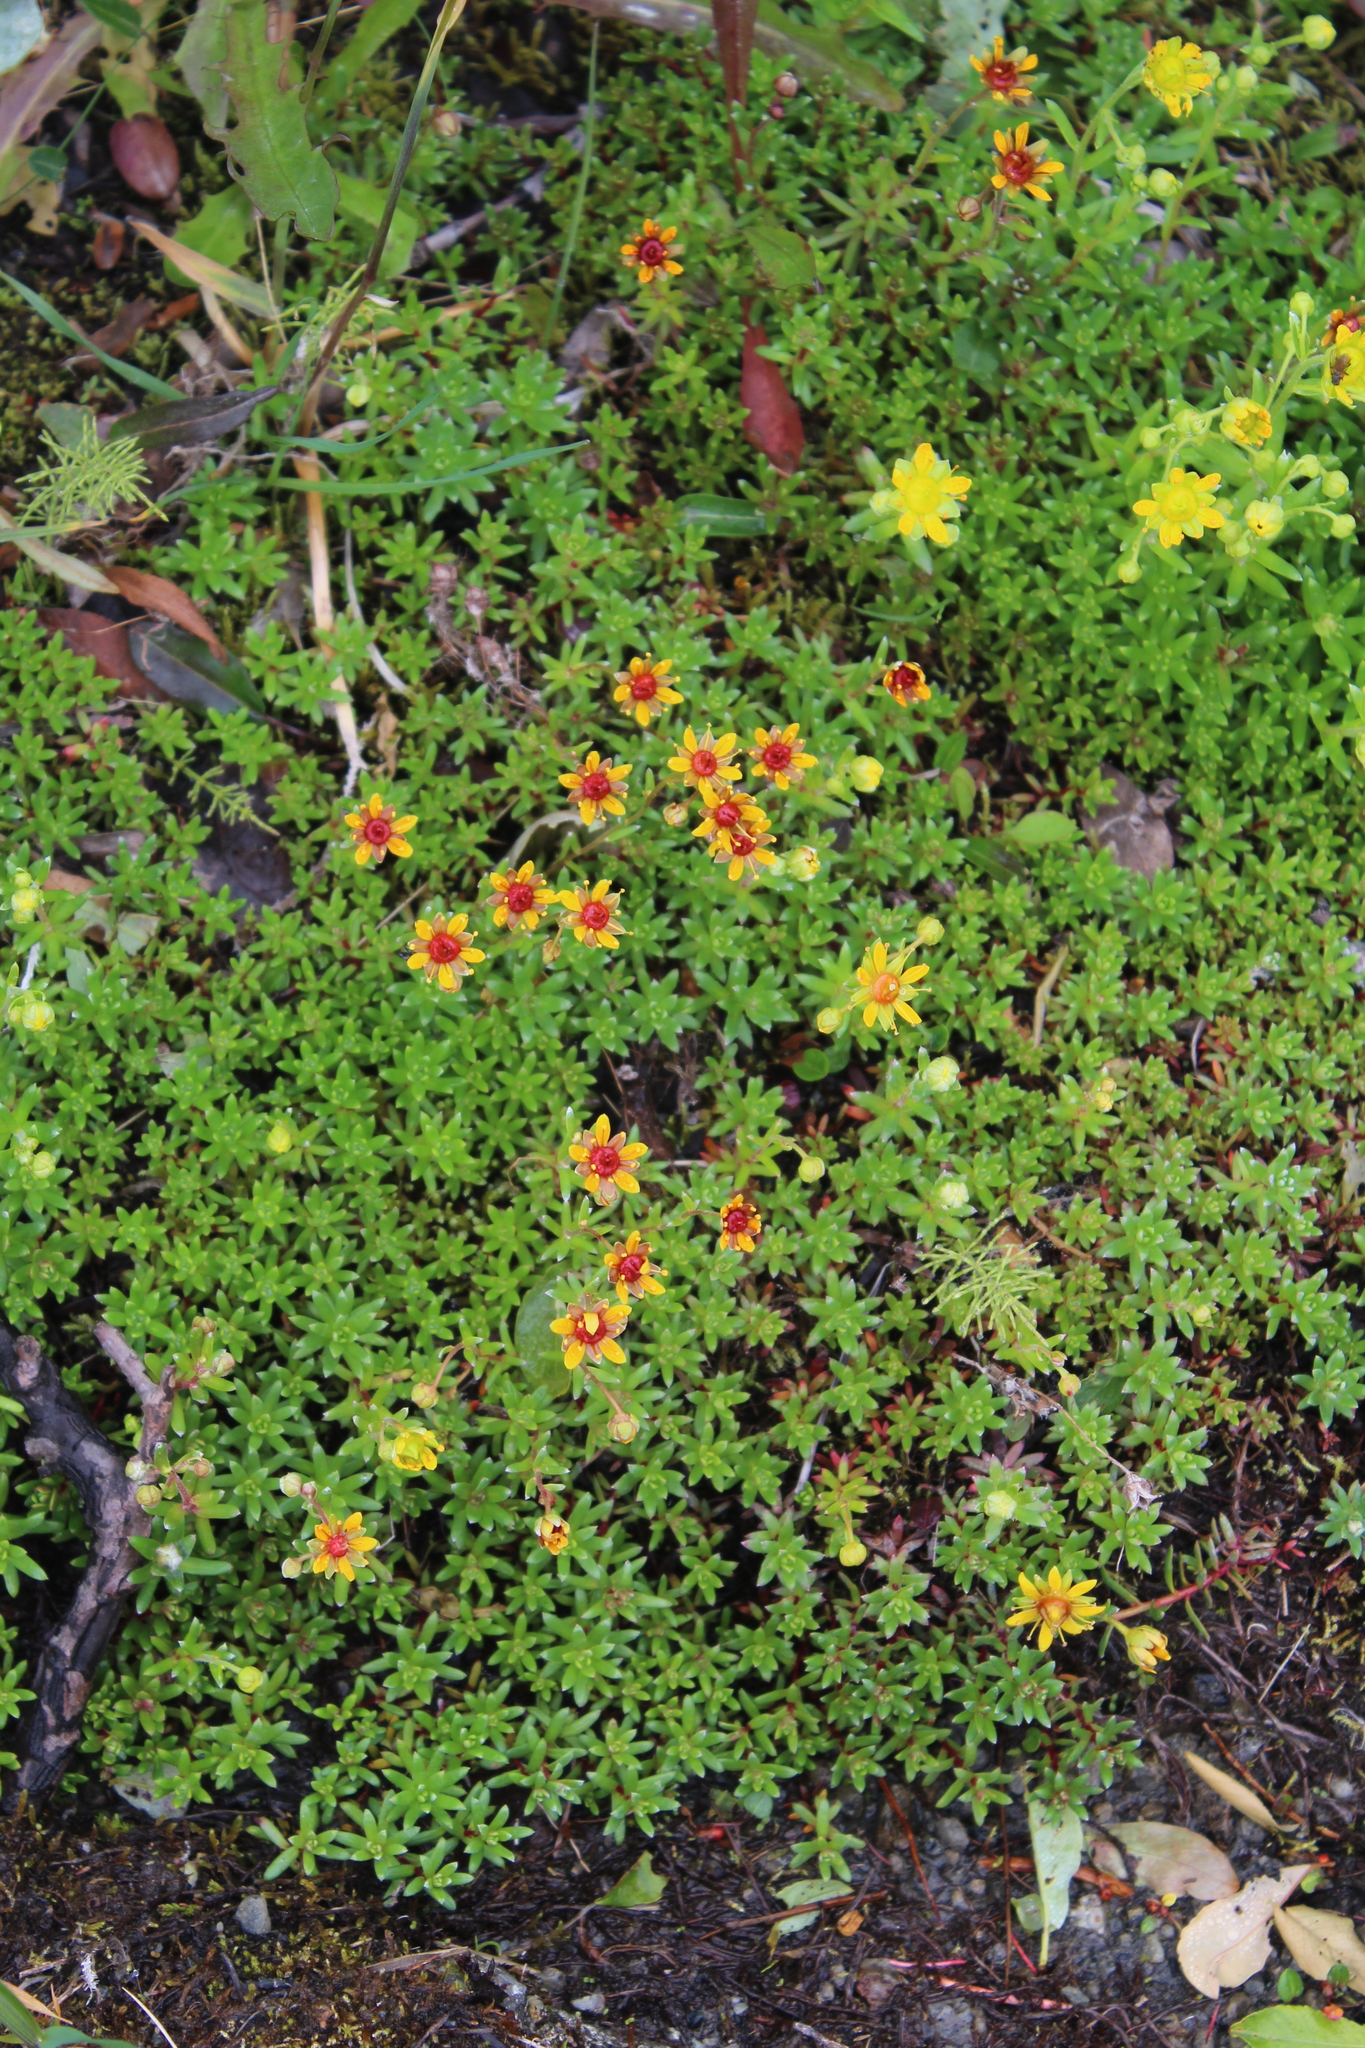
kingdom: Plantae
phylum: Tracheophyta
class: Magnoliopsida
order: Saxifragales
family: Saxifragaceae
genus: Saxifraga
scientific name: Saxifraga aizoides
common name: Yellow mountain saxifrage
